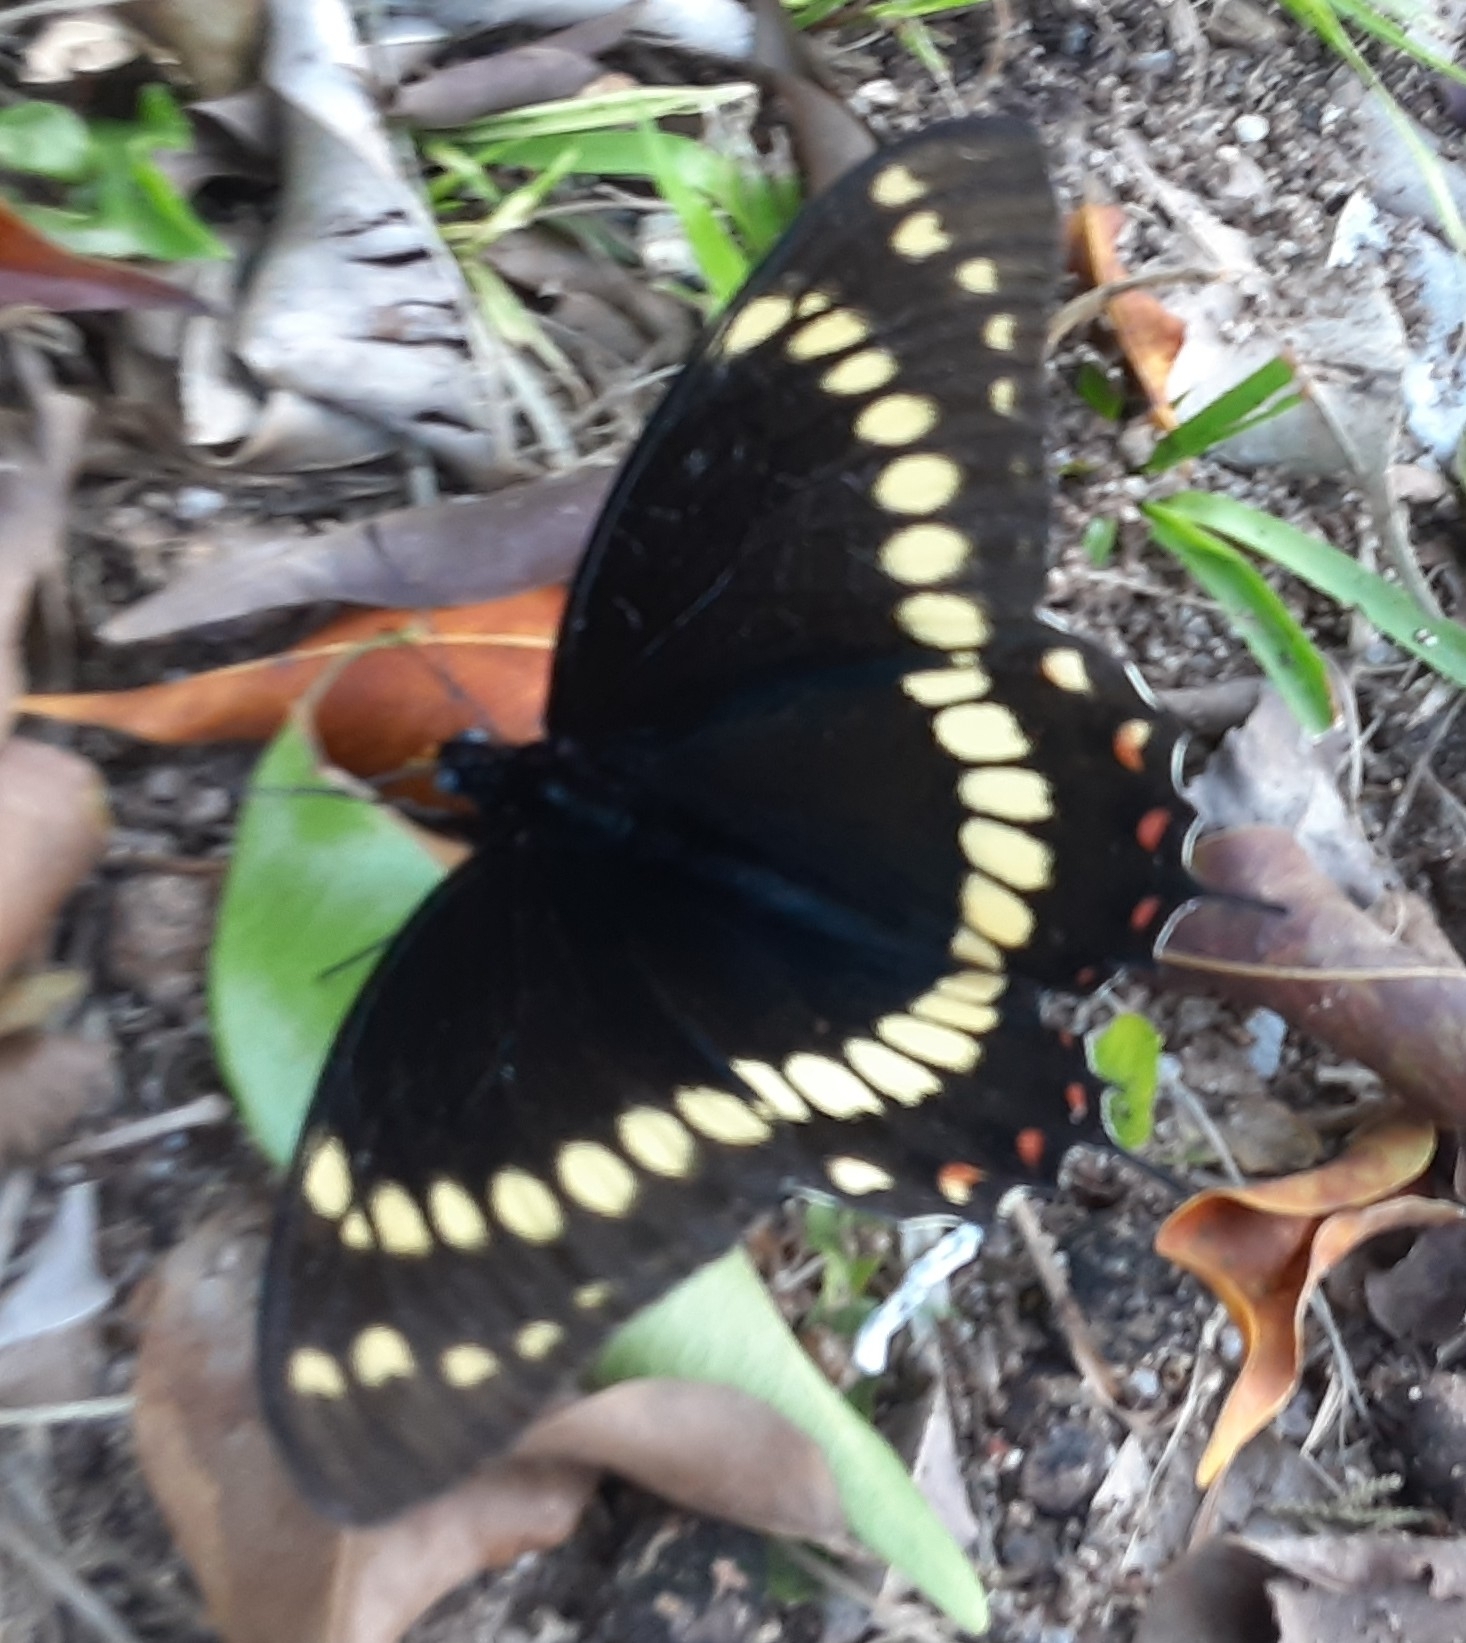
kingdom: Animalia
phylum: Arthropoda
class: Insecta
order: Lepidoptera
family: Papilionidae
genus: Papilio
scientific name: Papilio scamander
